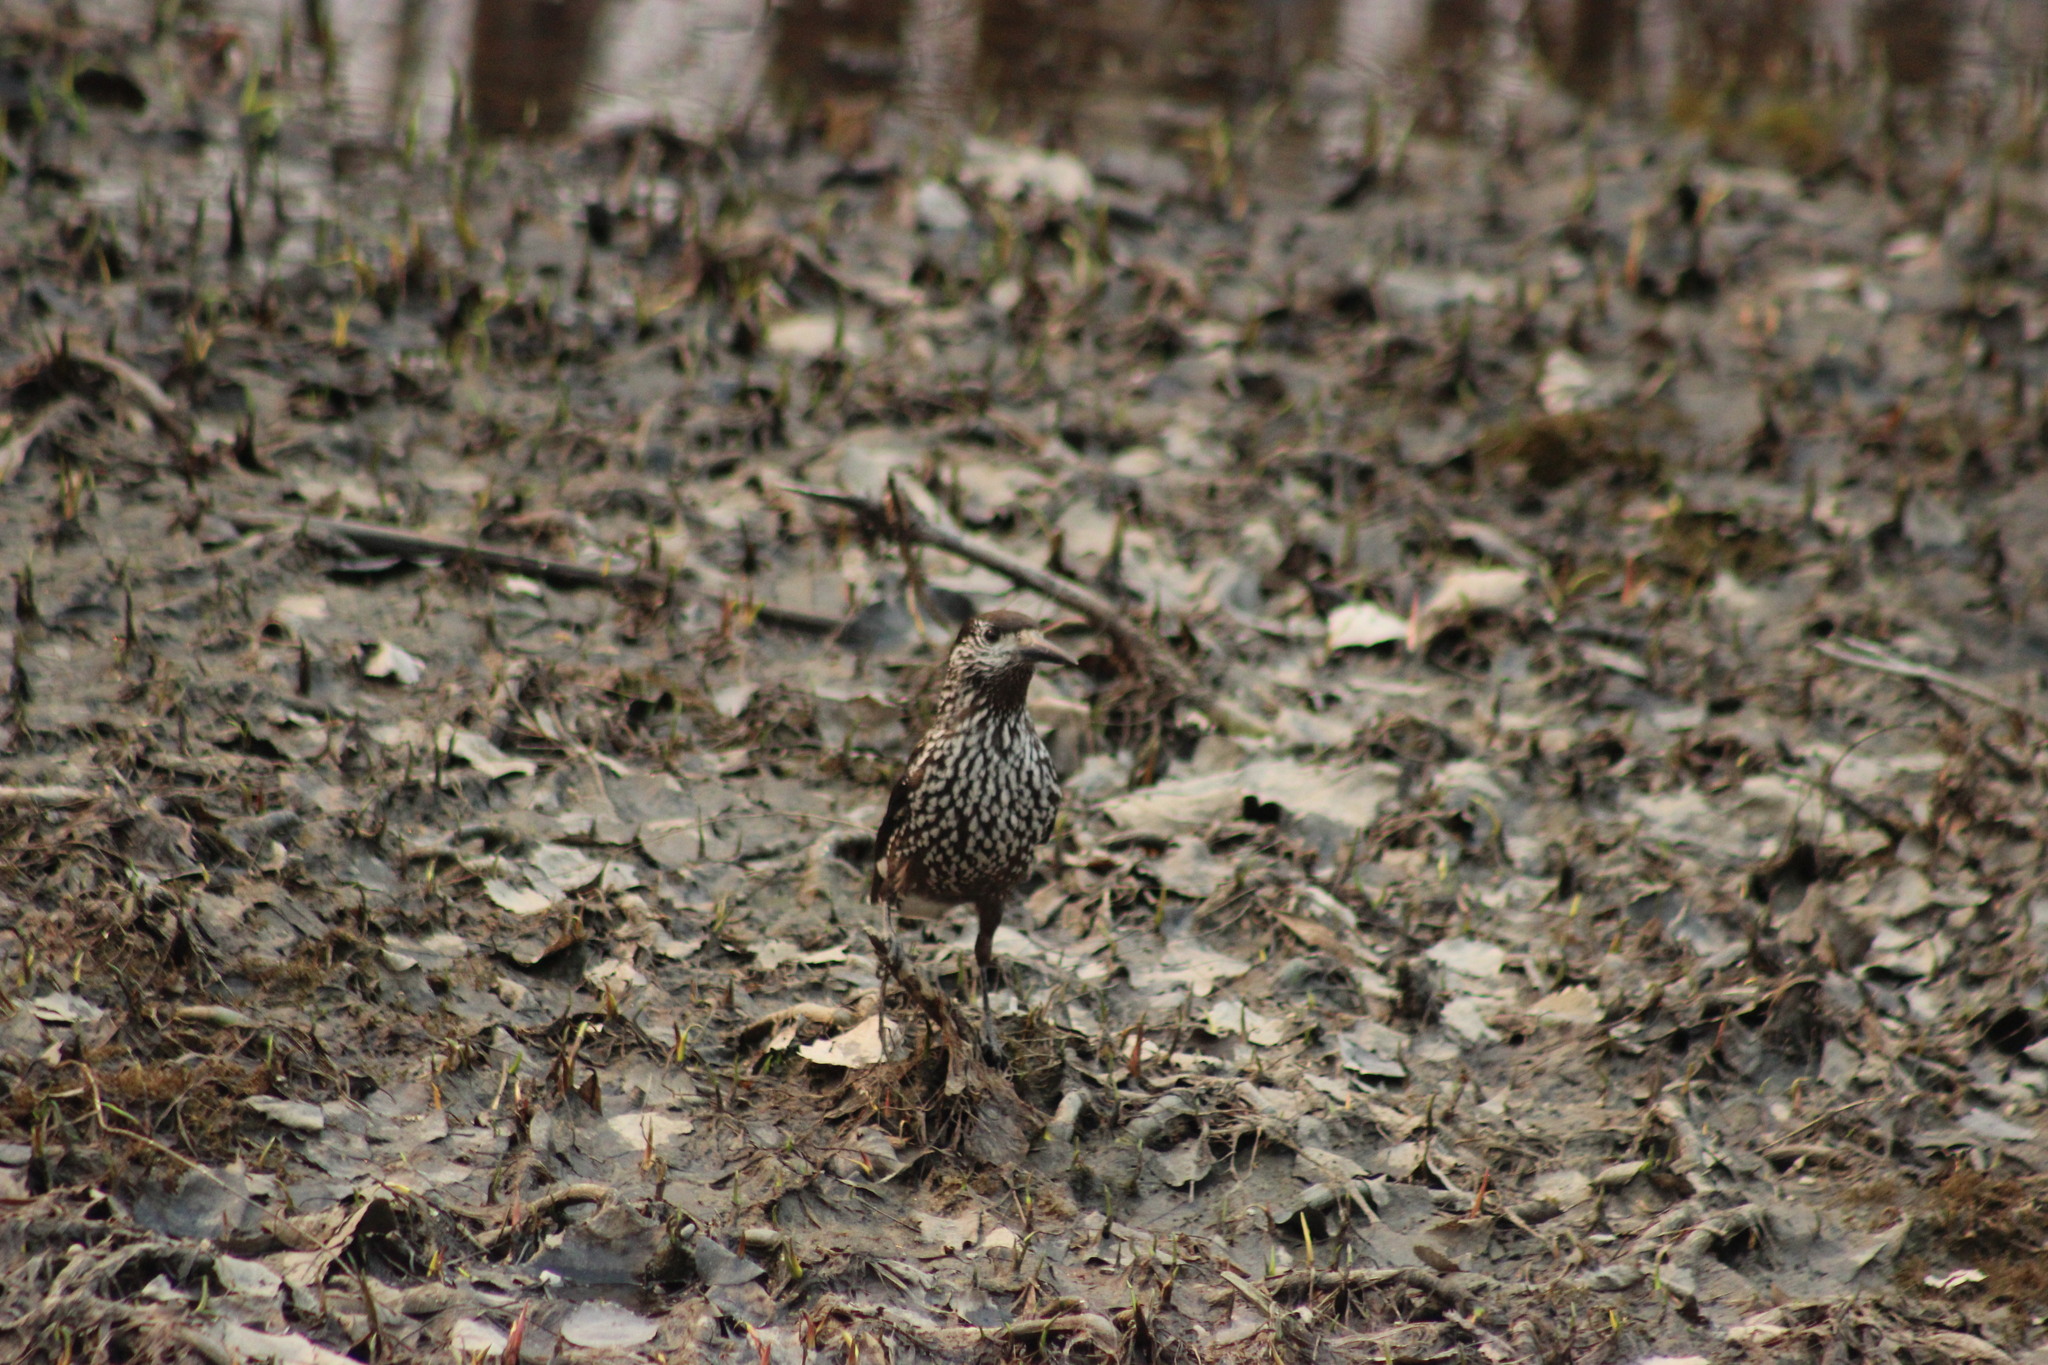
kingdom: Animalia
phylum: Chordata
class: Aves
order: Passeriformes
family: Corvidae
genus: Nucifraga
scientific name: Nucifraga caryocatactes
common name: Spotted nutcracker
